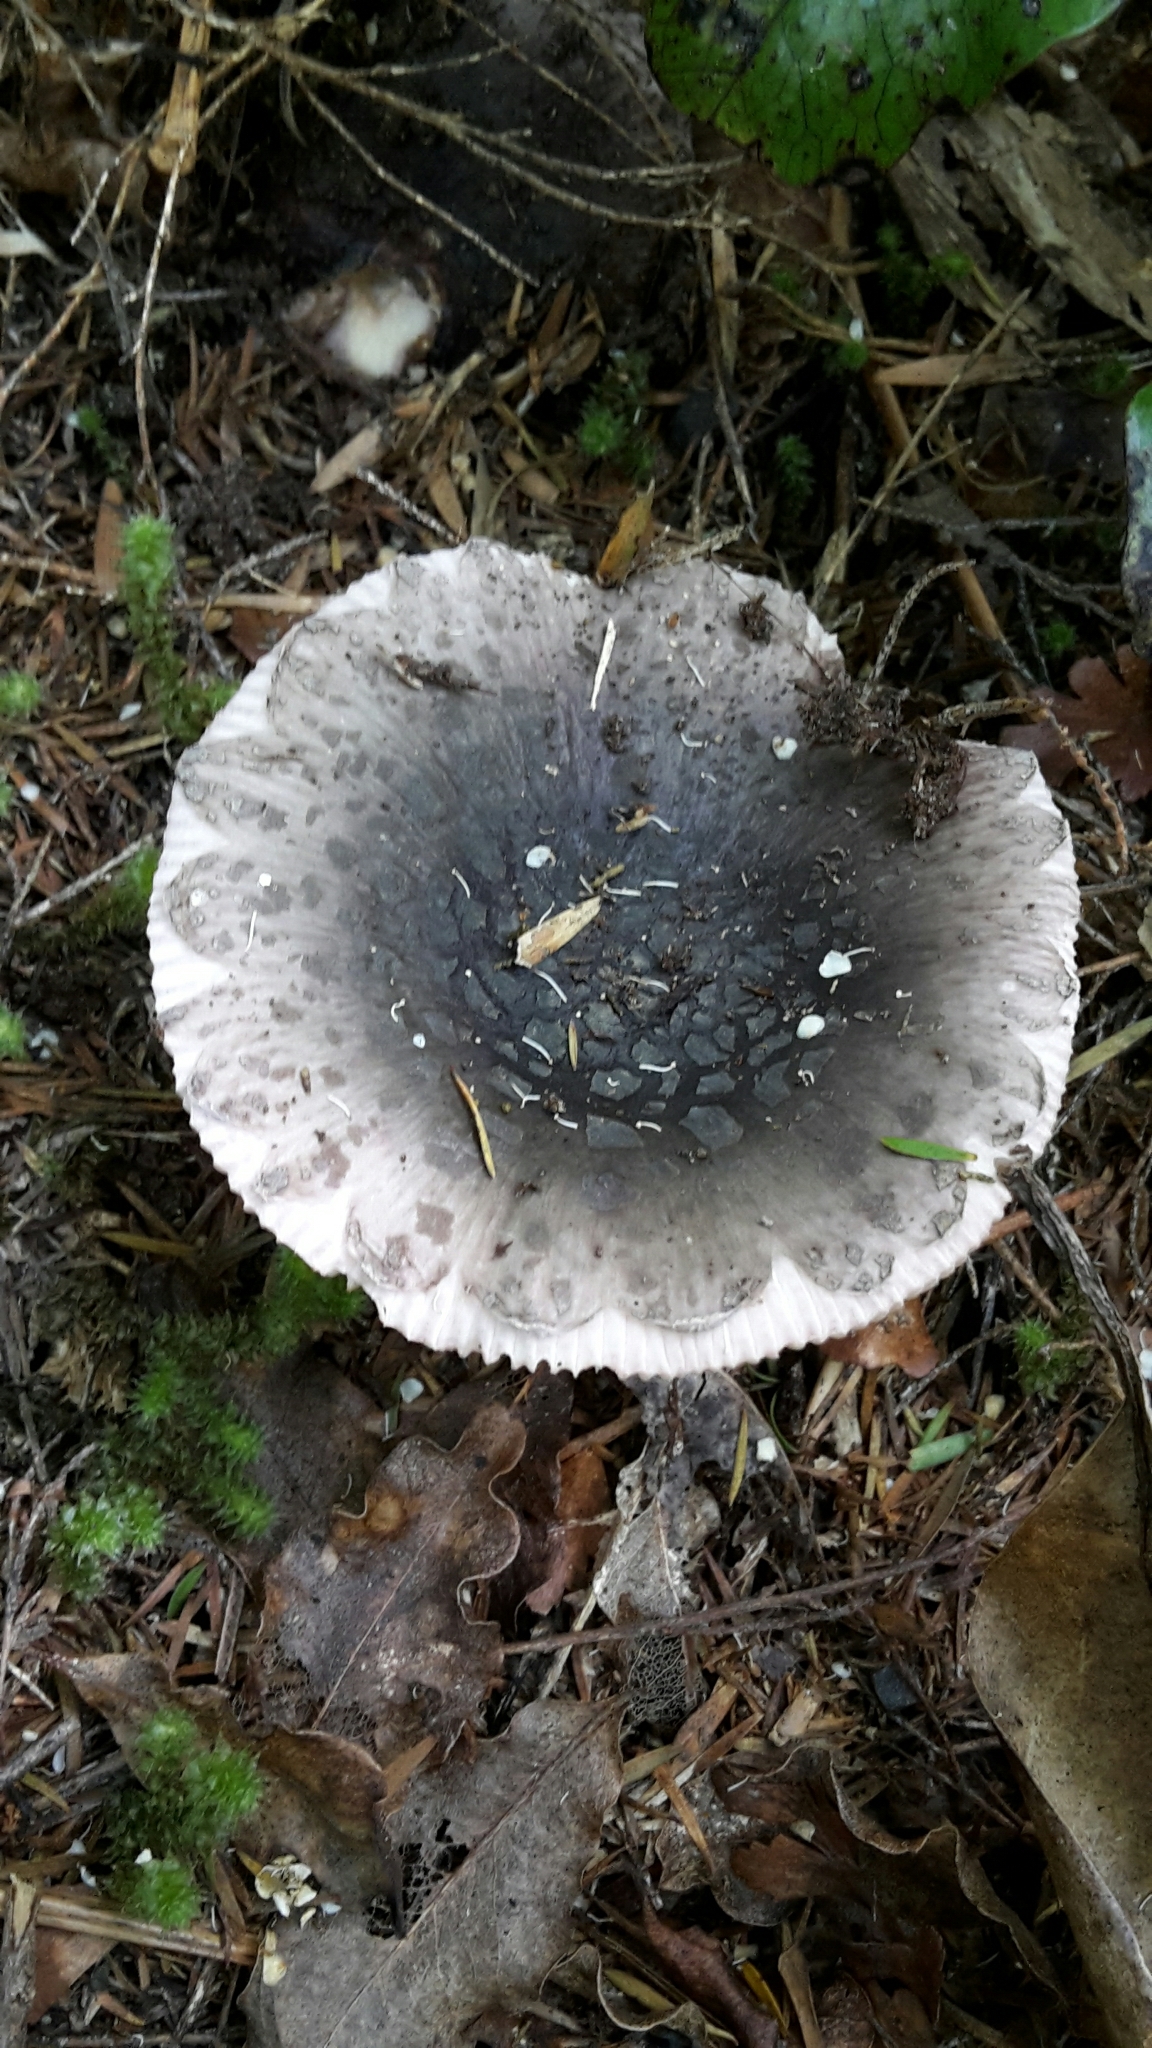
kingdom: Fungi
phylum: Basidiomycota
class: Agaricomycetes
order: Russulales
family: Russulaceae
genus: Russula
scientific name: Russula griseoviridis
